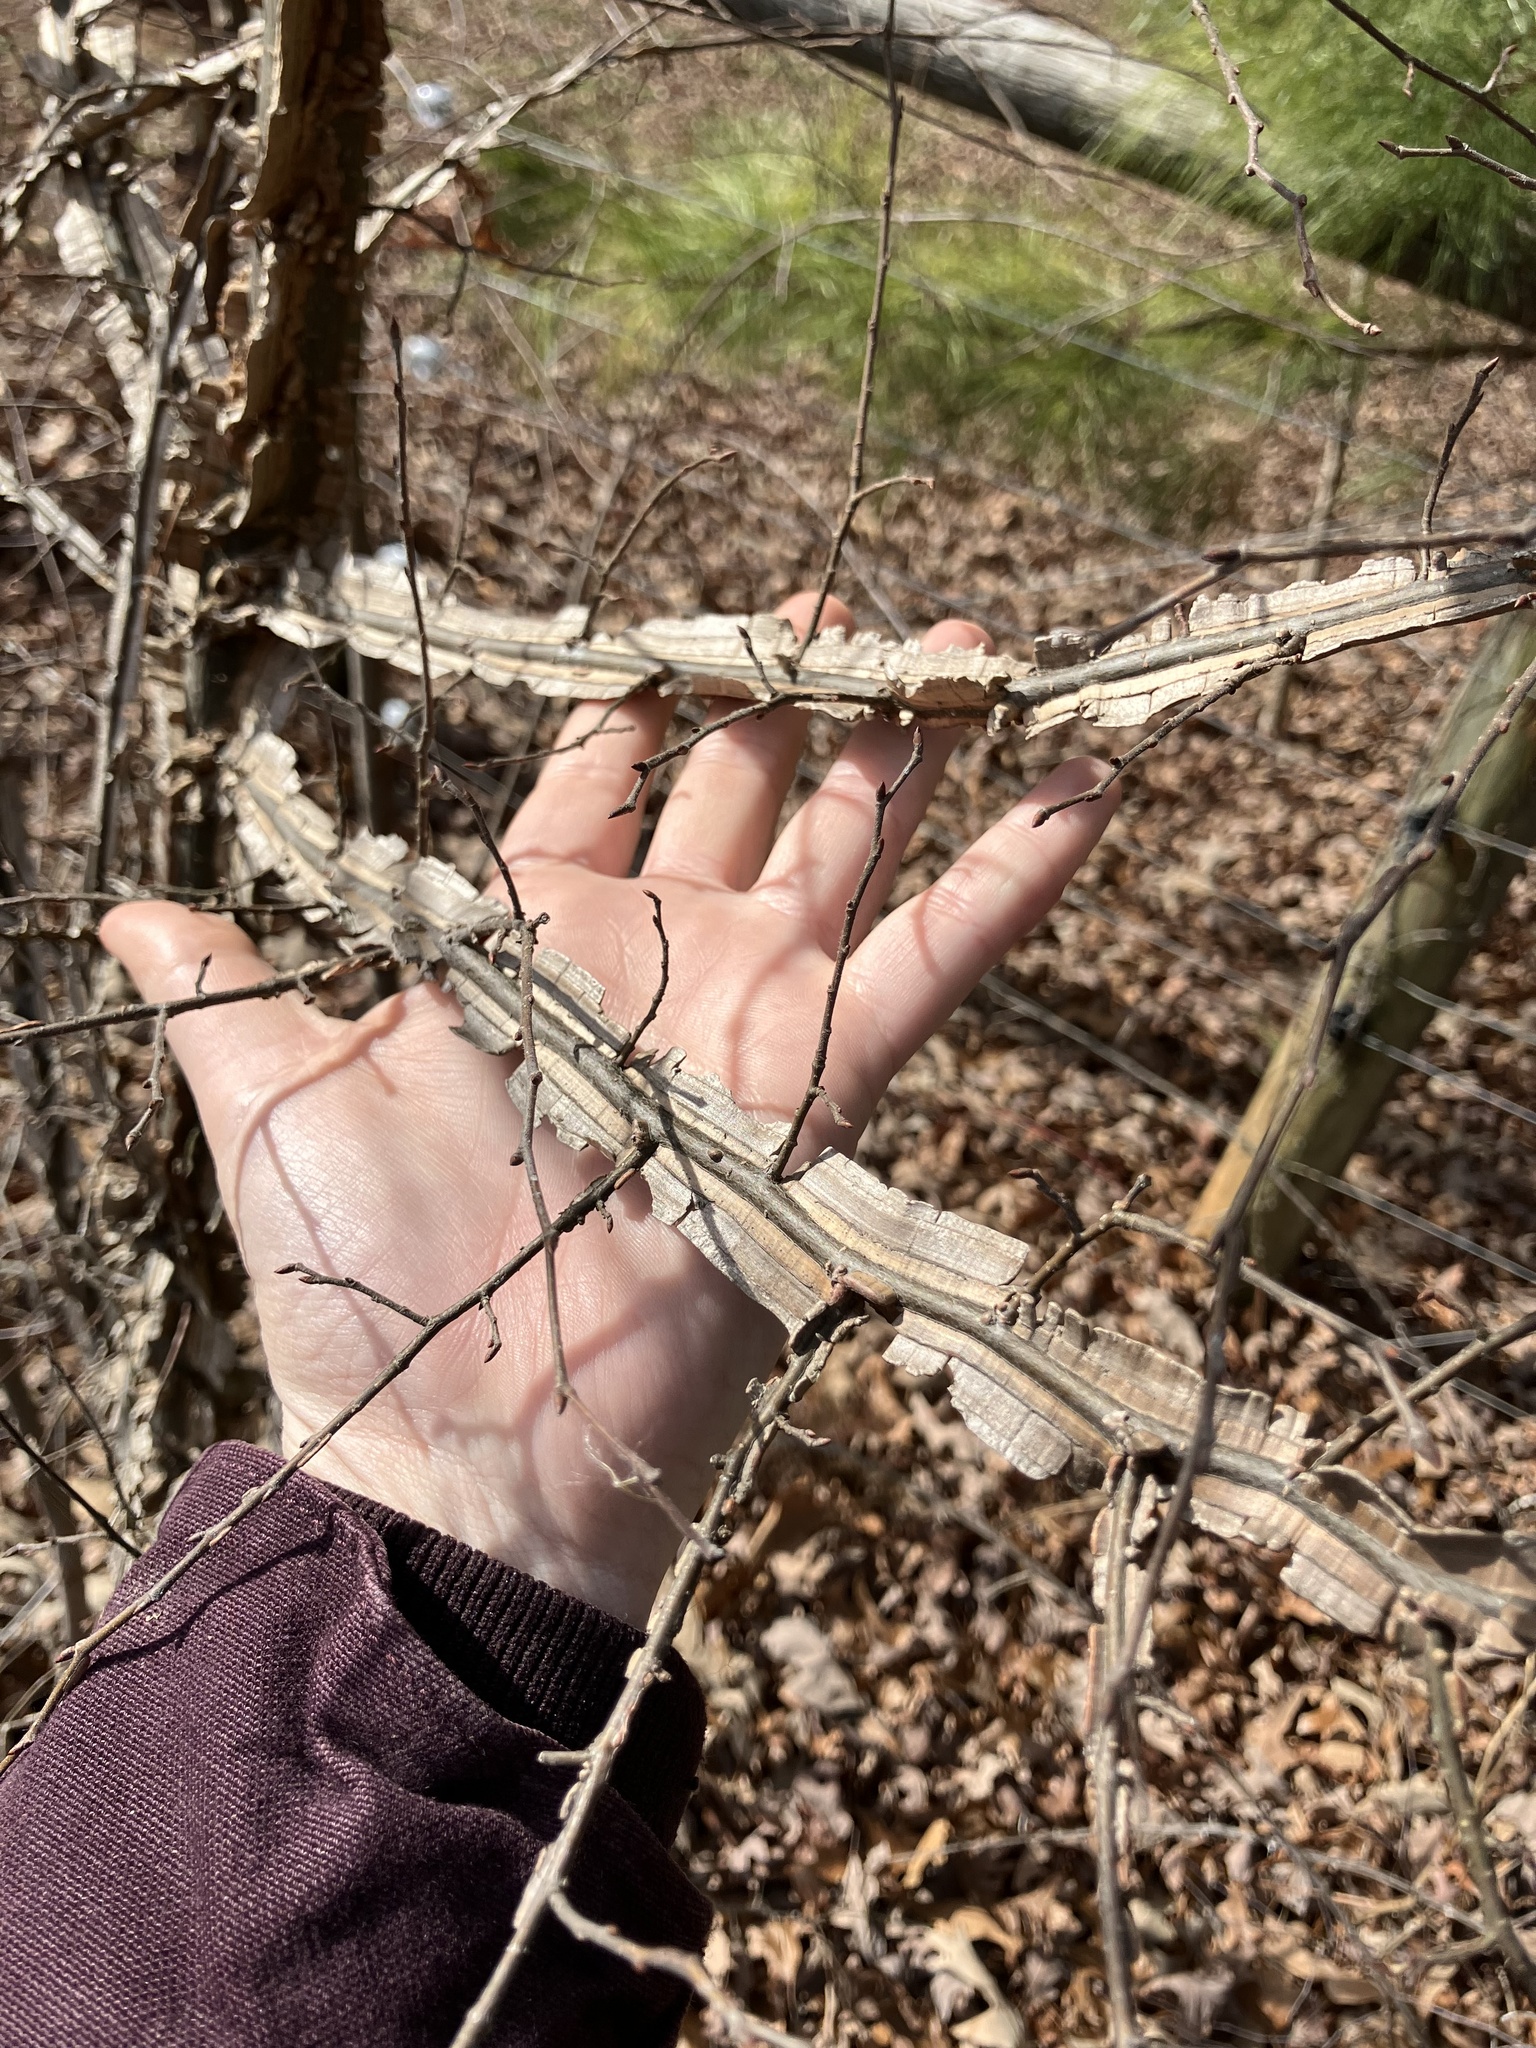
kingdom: Plantae
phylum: Tracheophyta
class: Magnoliopsida
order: Rosales
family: Ulmaceae
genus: Ulmus
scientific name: Ulmus alata
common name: Winged elm
